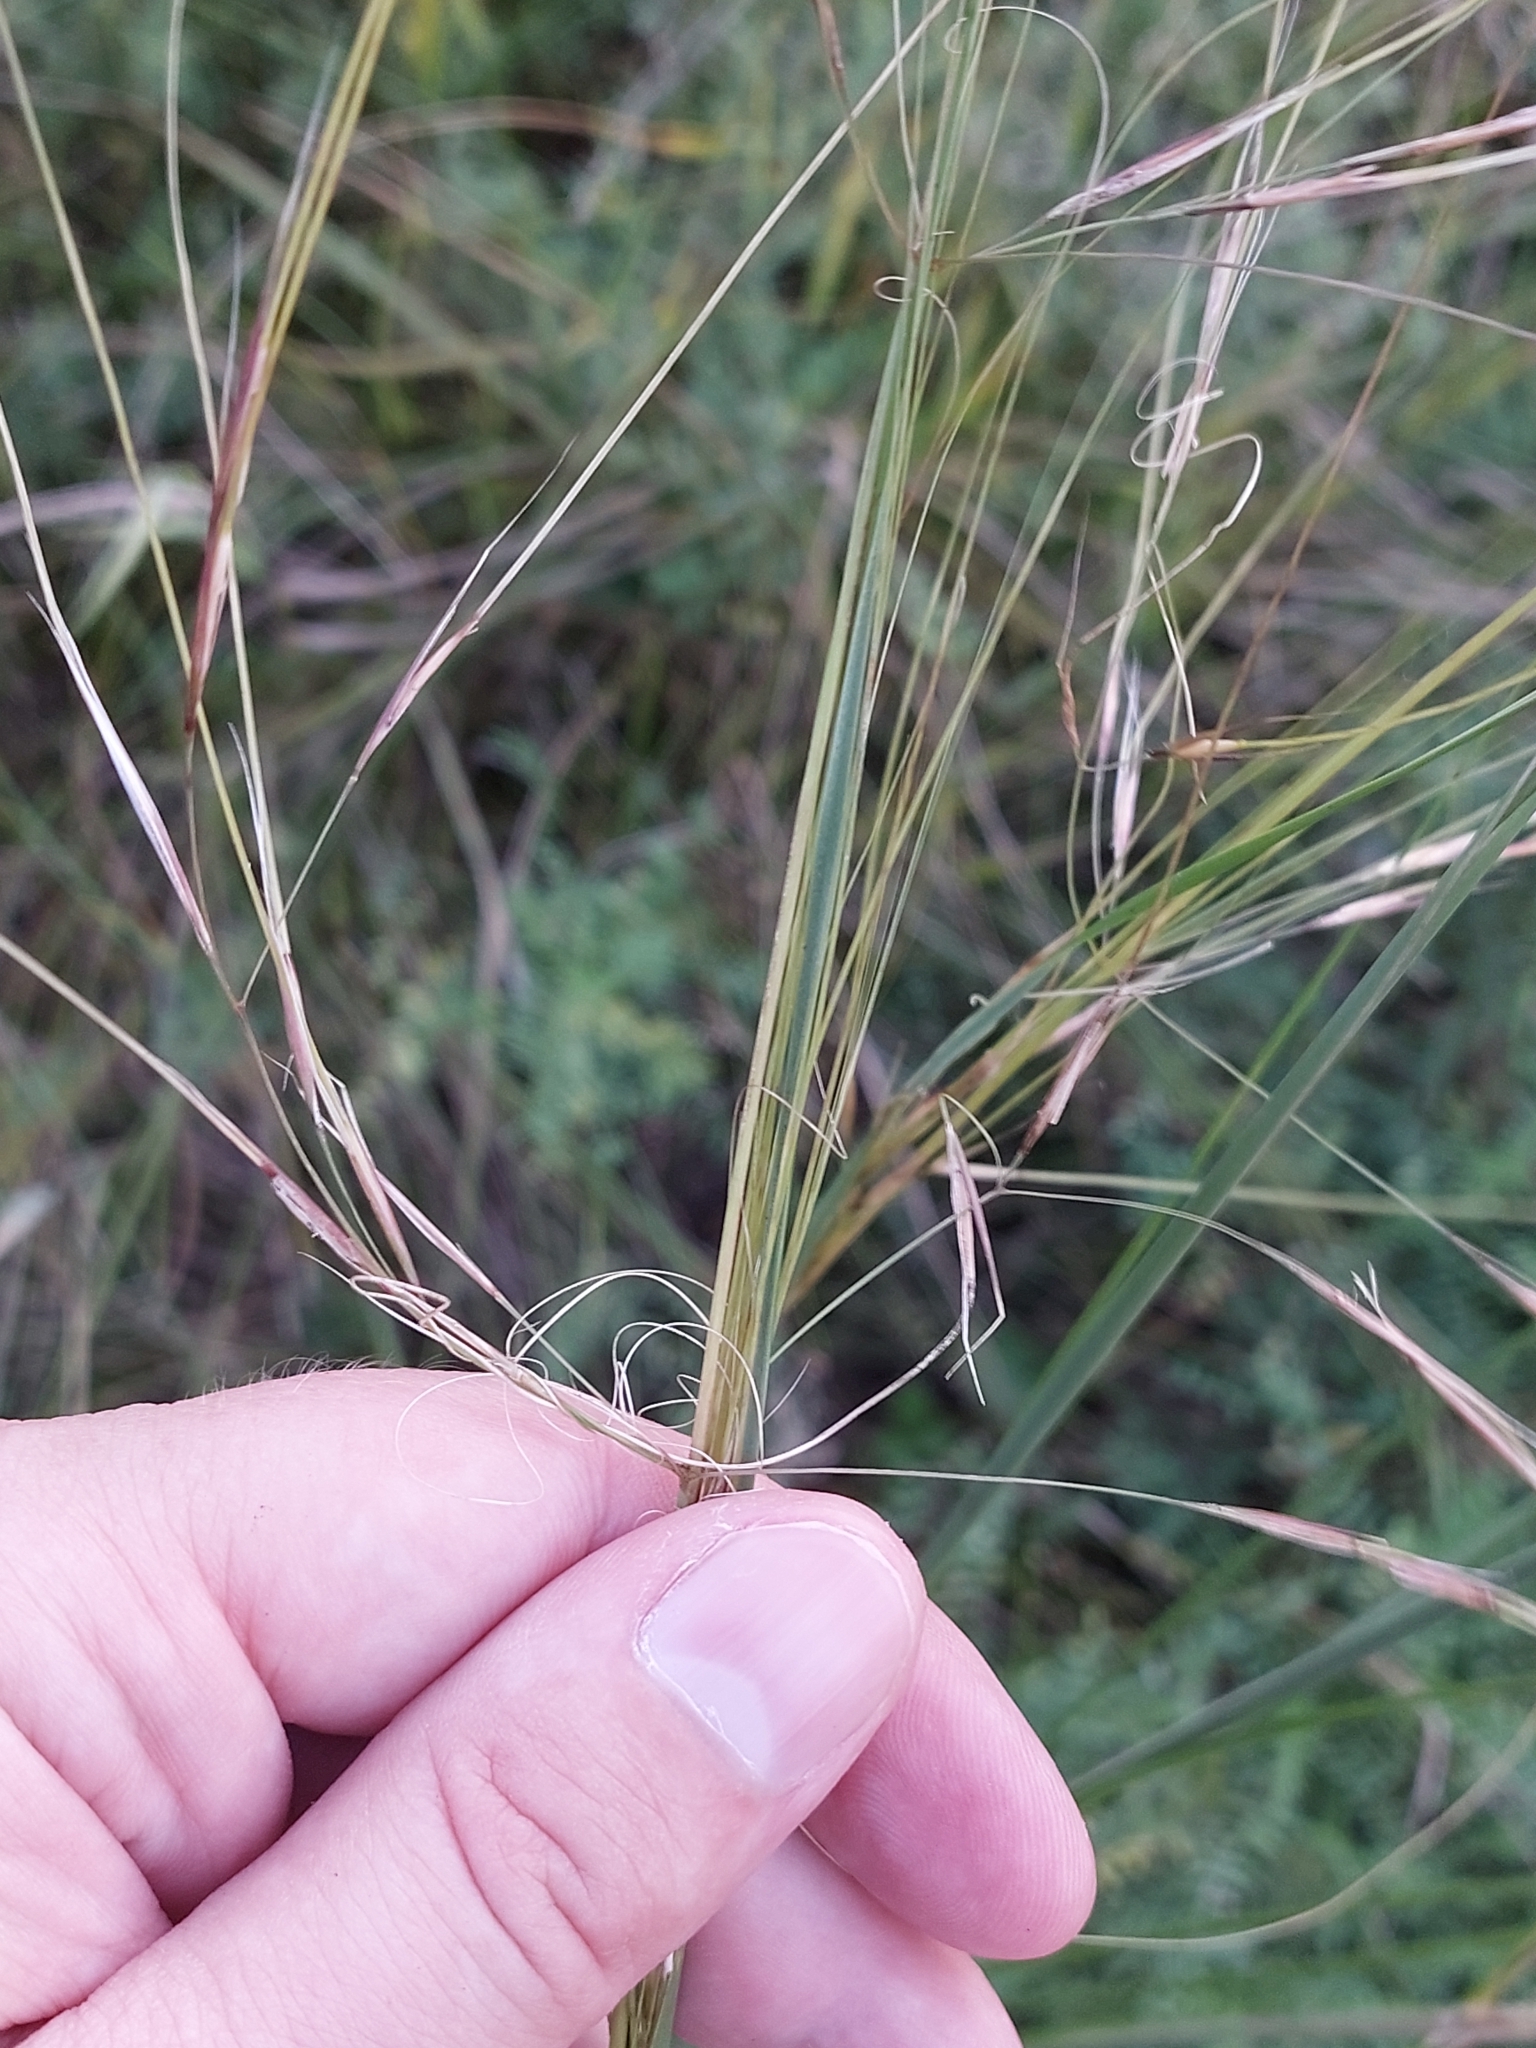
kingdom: Plantae
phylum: Tracheophyta
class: Liliopsida
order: Poales
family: Poaceae
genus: Stipa
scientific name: Stipa capillata
